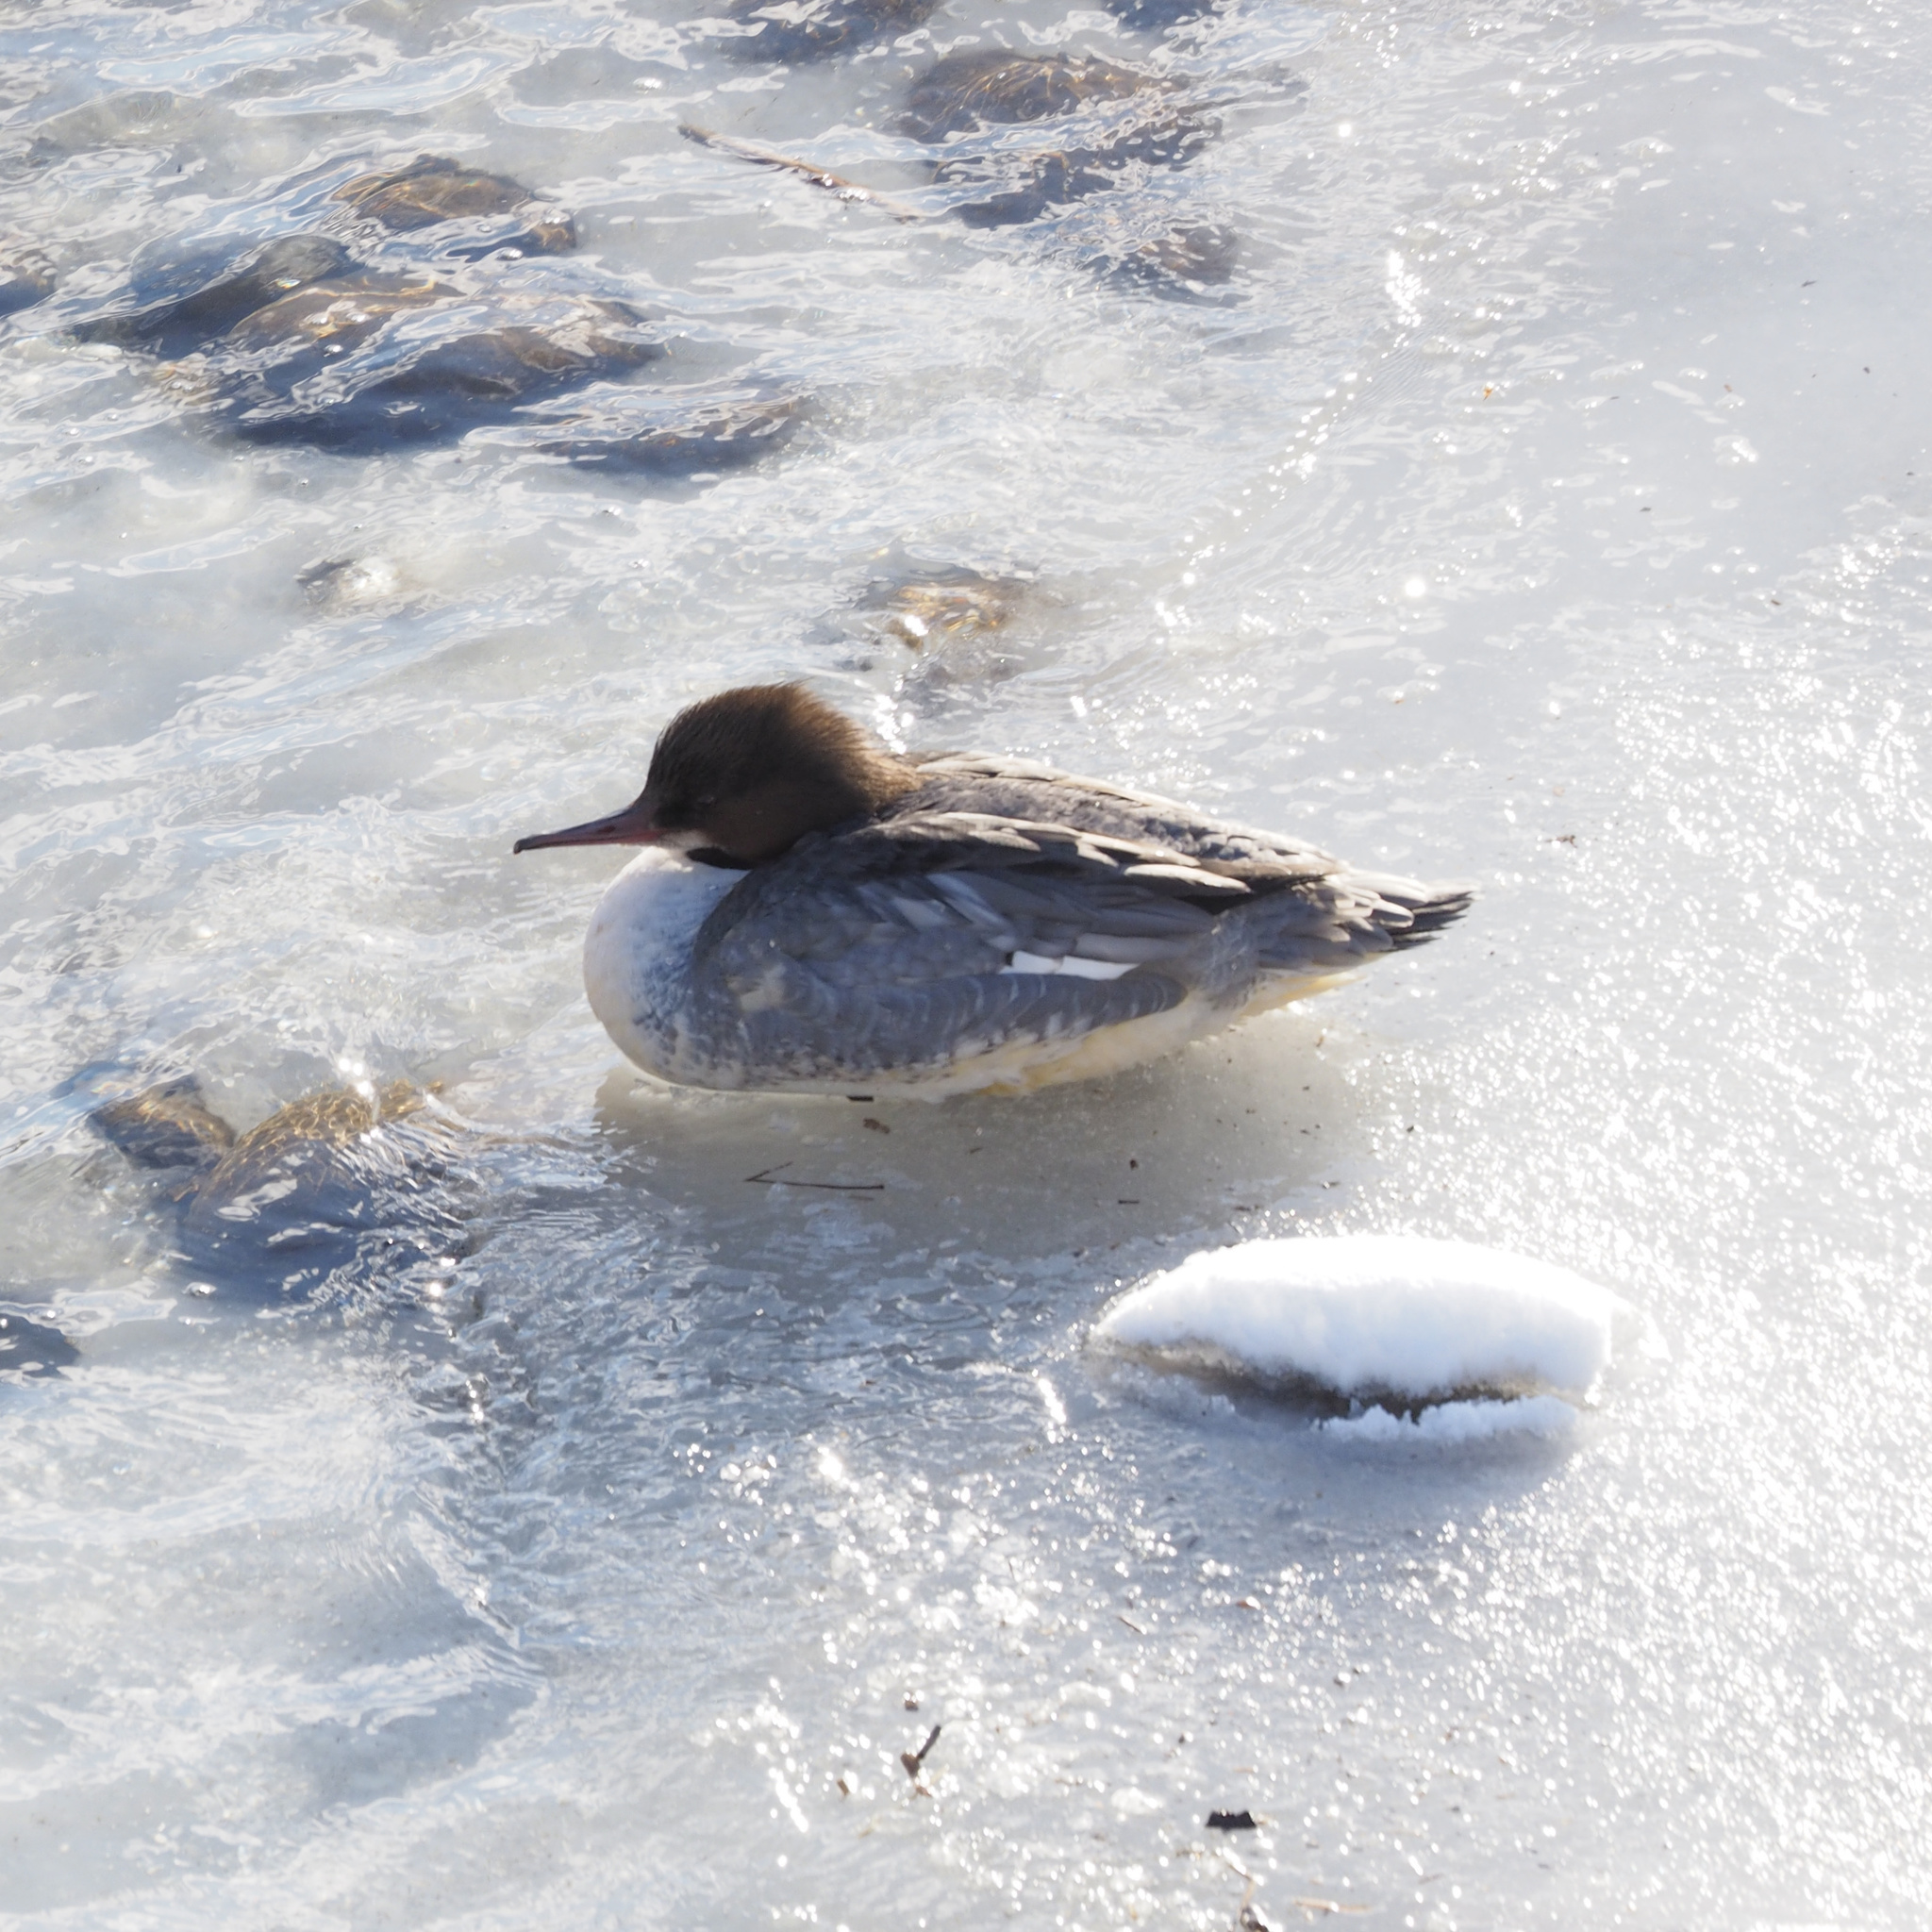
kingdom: Animalia
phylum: Chordata
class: Aves
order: Anseriformes
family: Anatidae
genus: Mergus
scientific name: Mergus merganser
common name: Common merganser
